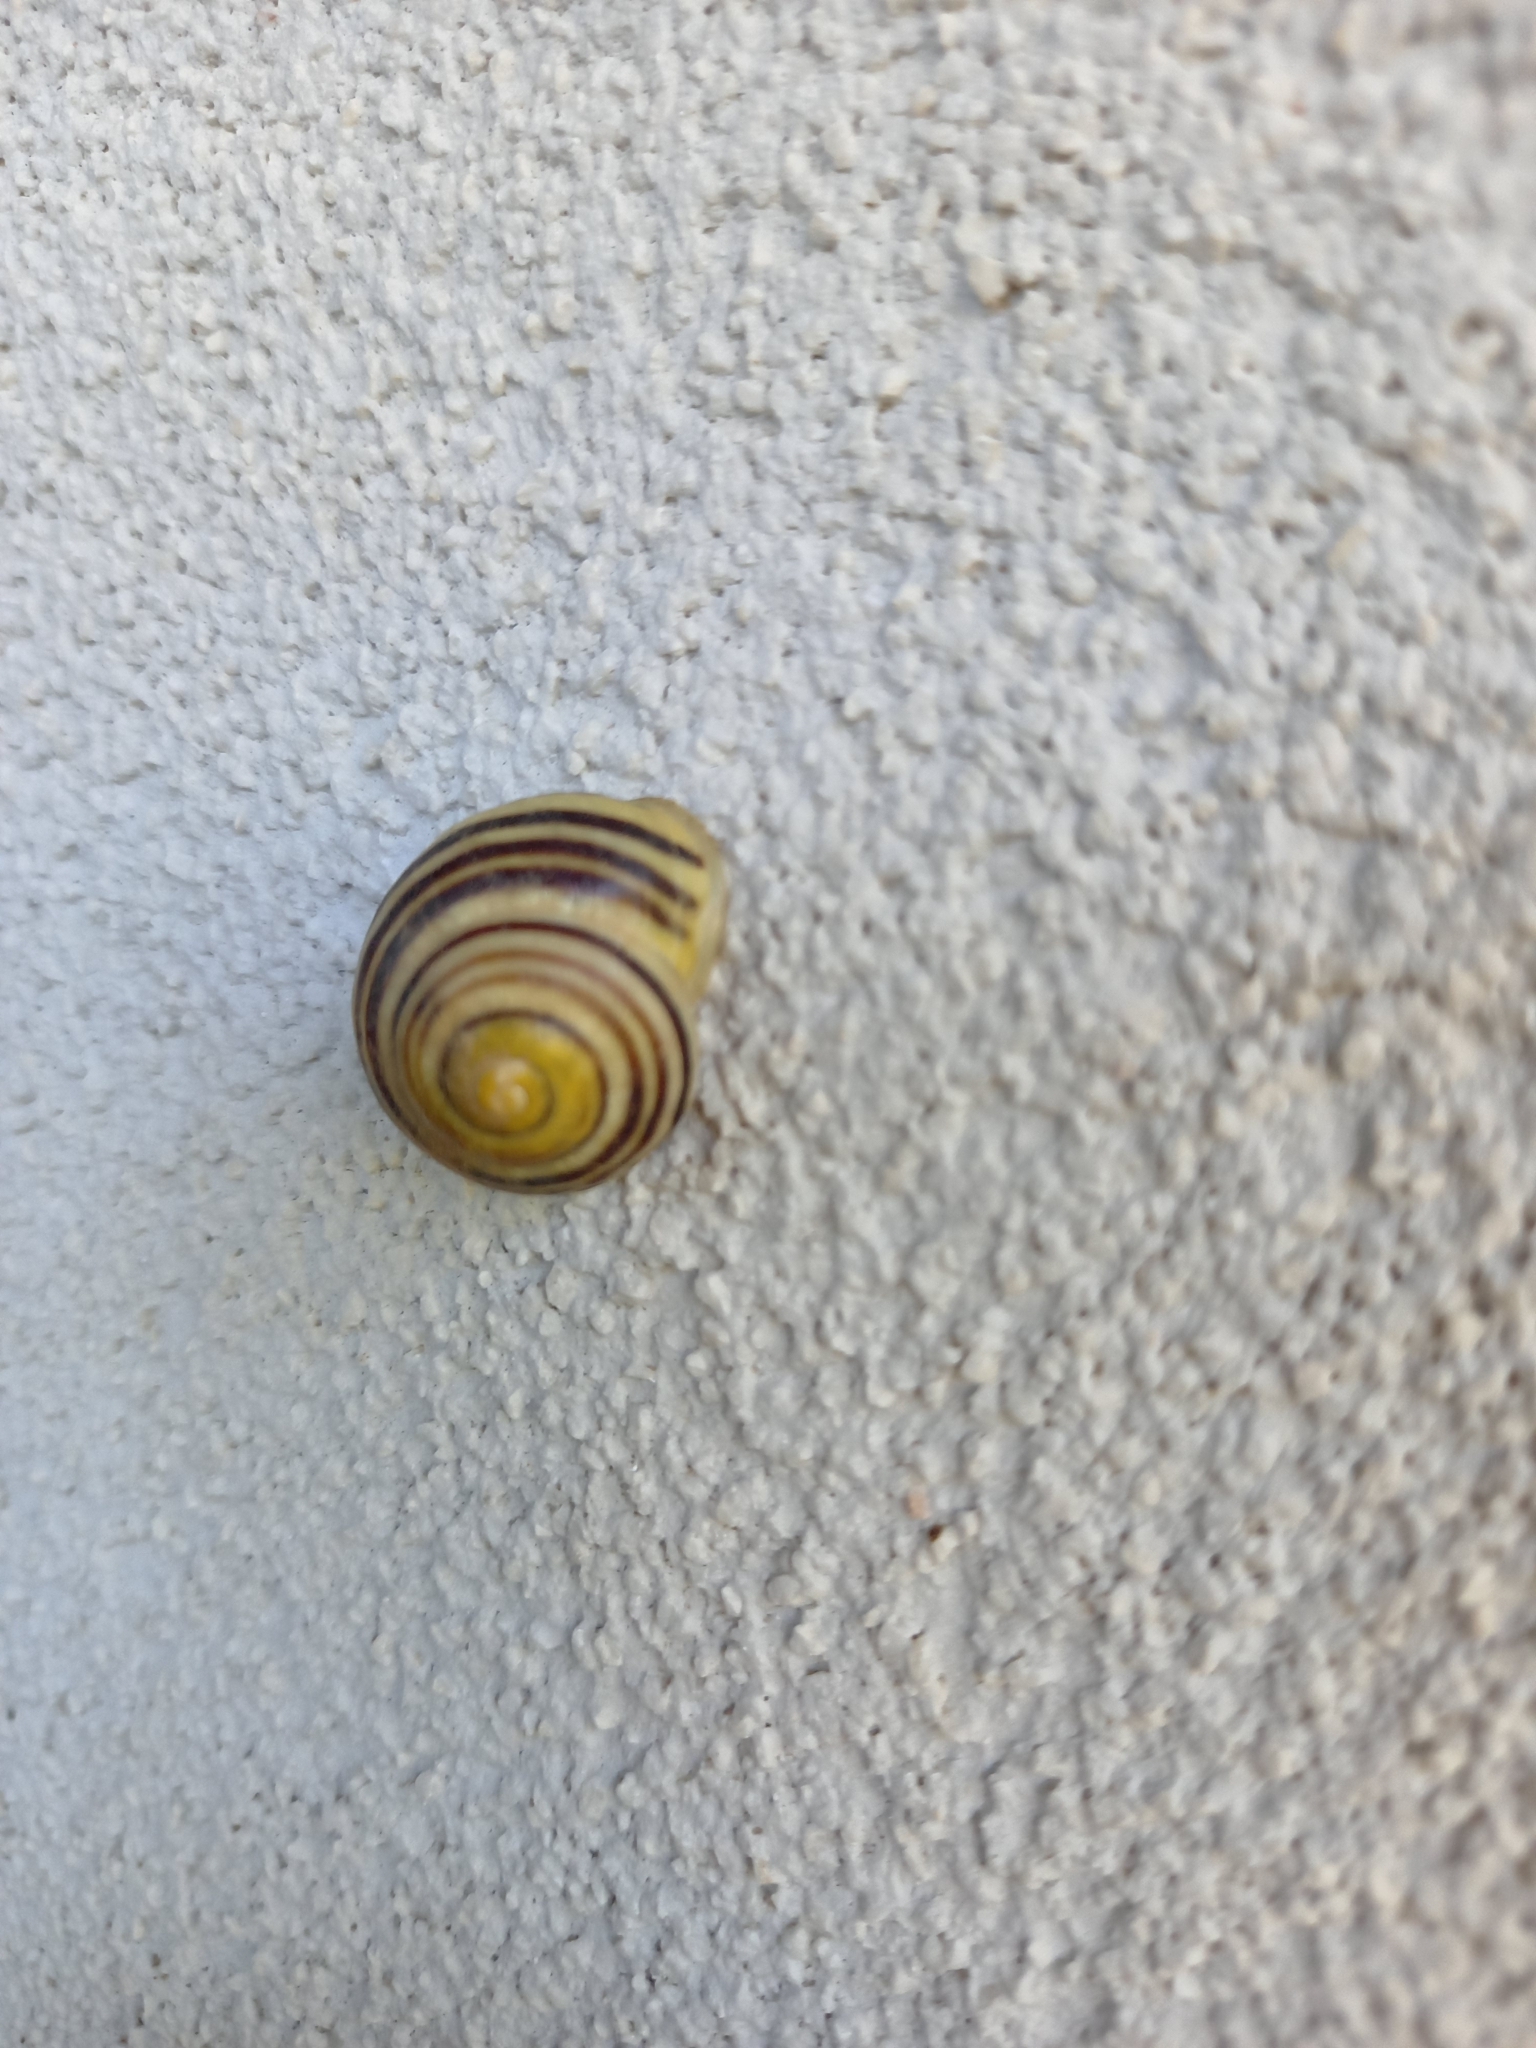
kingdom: Animalia
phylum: Mollusca
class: Gastropoda
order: Stylommatophora
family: Helicidae
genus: Cepaea
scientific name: Cepaea hortensis
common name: White-lip gardensnail
